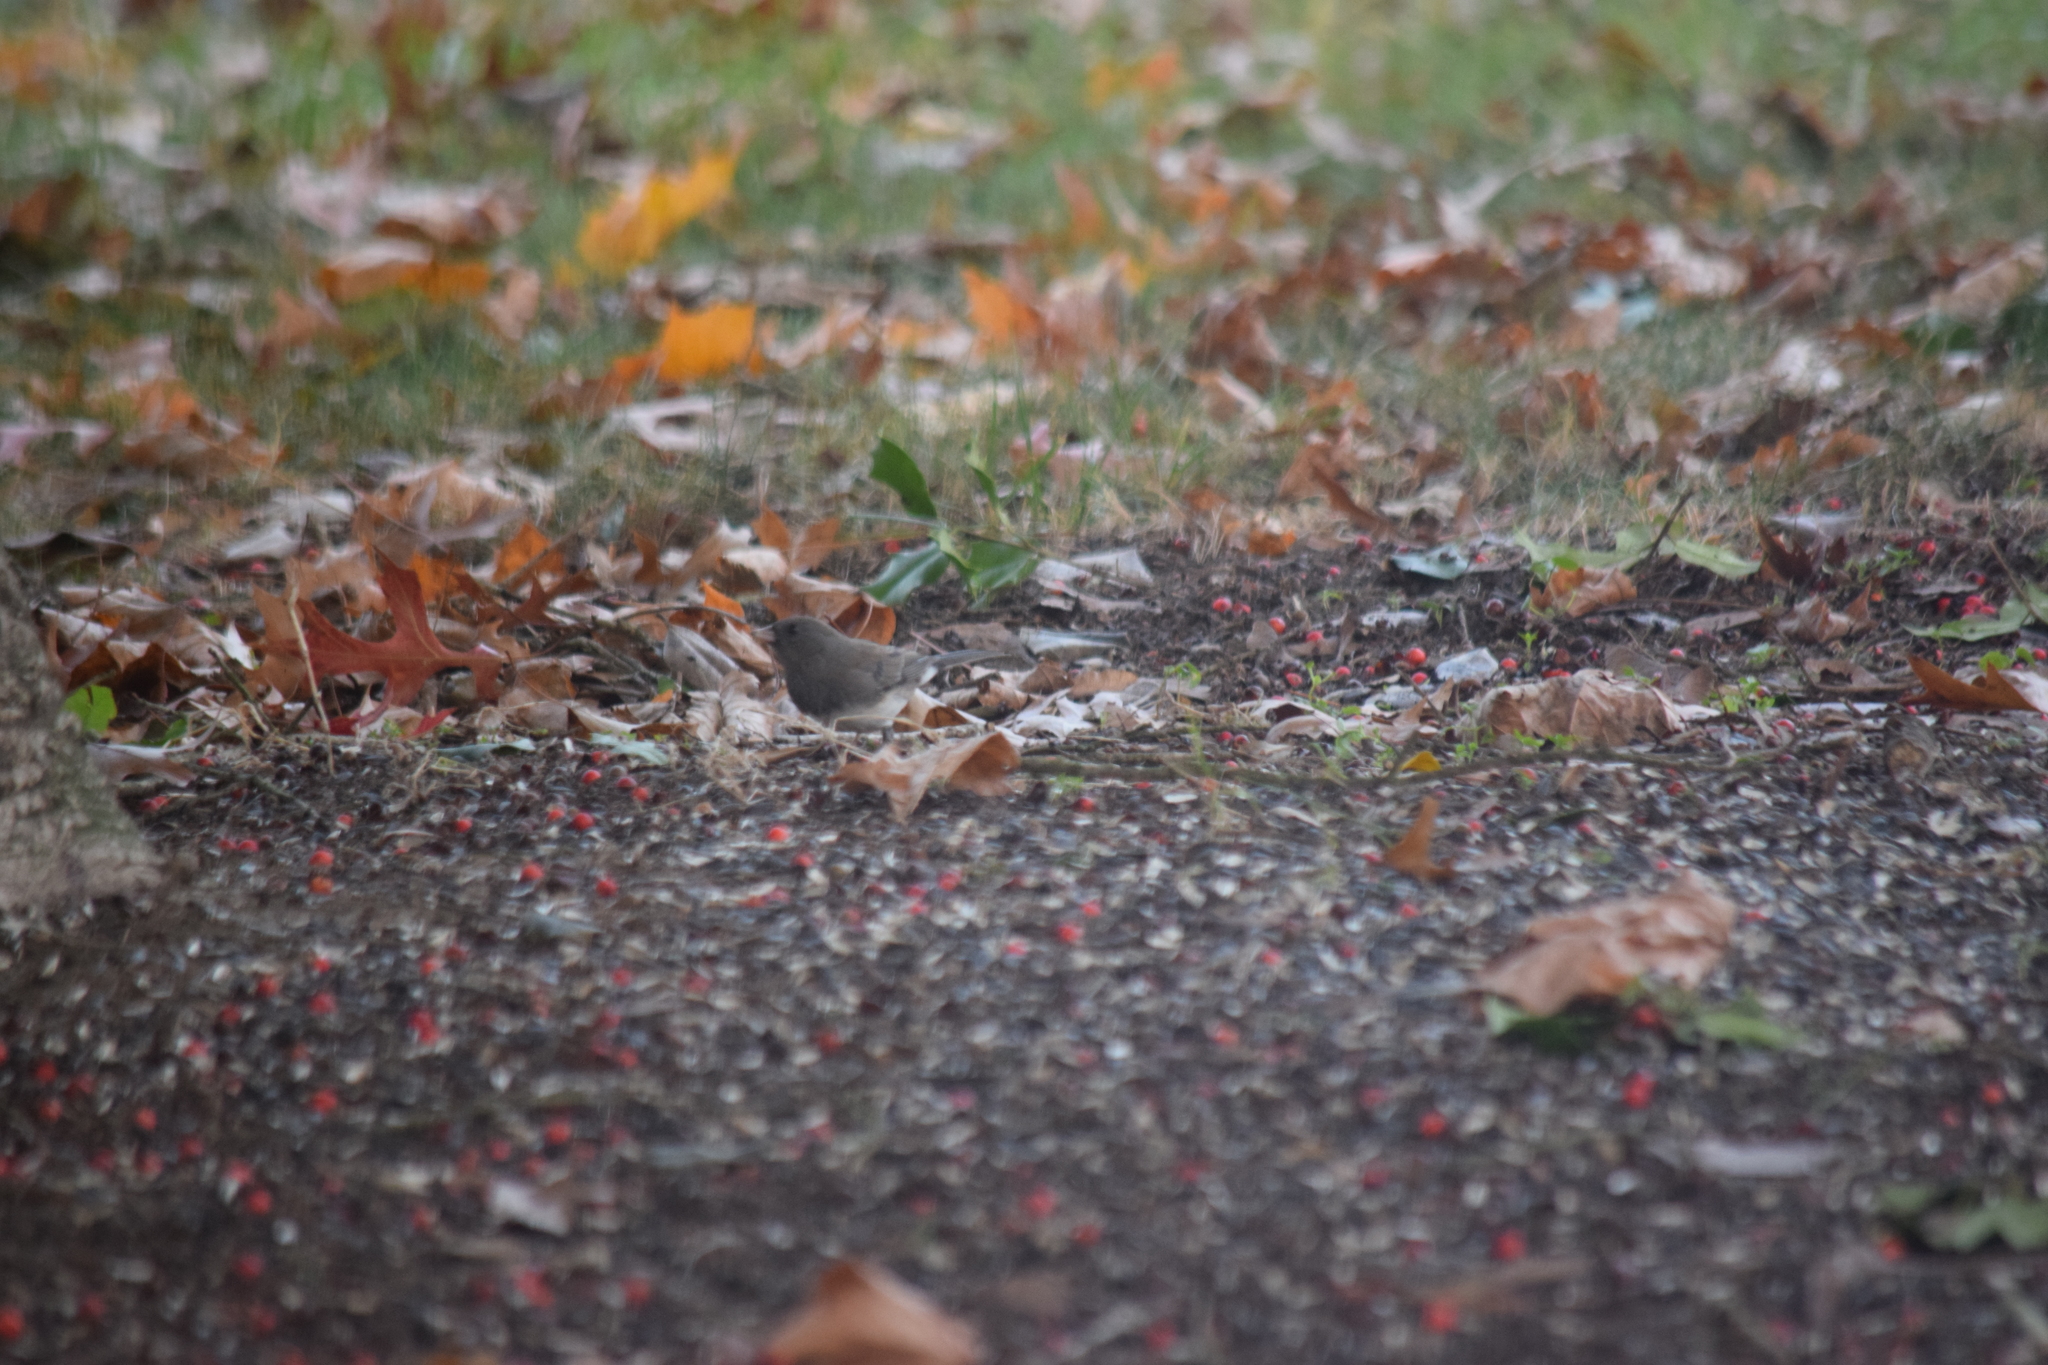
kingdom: Animalia
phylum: Chordata
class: Aves
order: Passeriformes
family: Passerellidae
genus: Junco
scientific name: Junco hyemalis
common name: Dark-eyed junco
